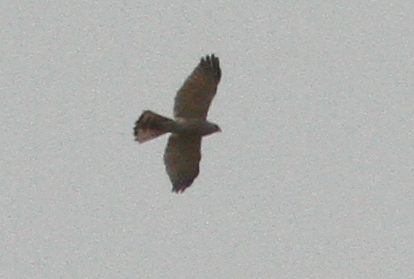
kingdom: Animalia
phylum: Chordata
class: Aves
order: Accipitriformes
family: Accipitridae
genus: Accipiter
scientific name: Accipiter badius
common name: Shikra
